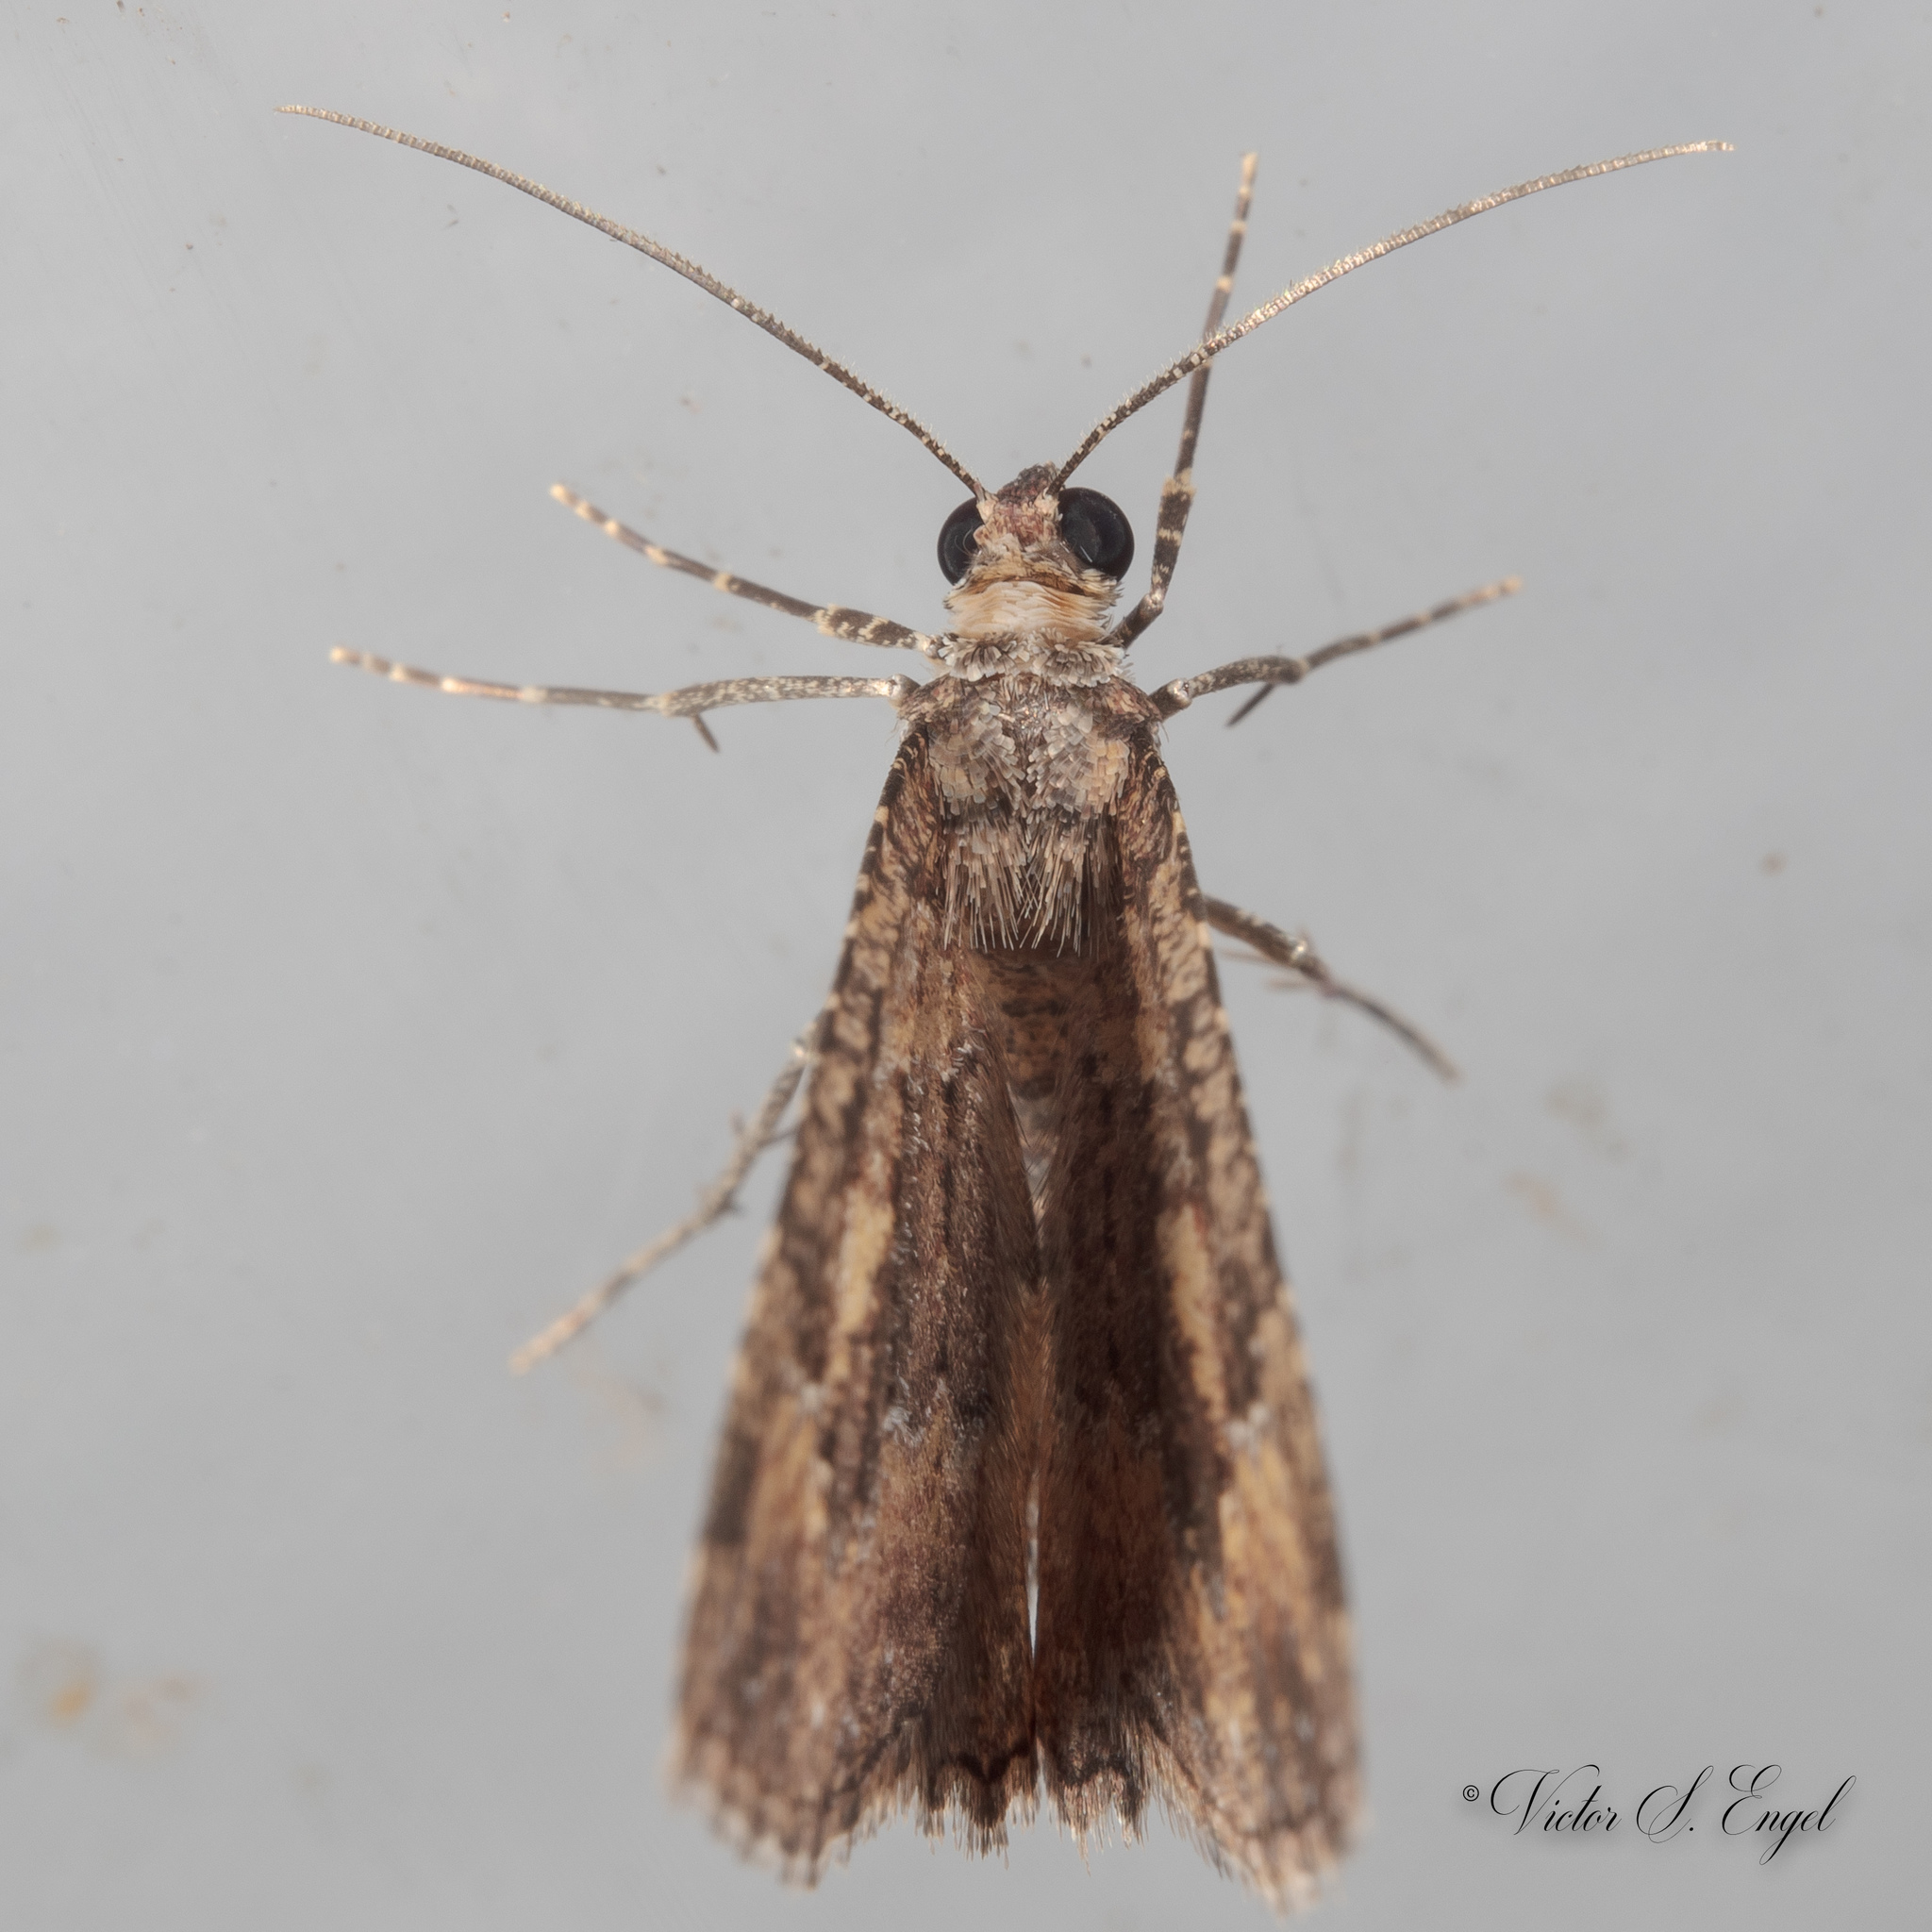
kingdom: Animalia
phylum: Arthropoda
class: Insecta
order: Lepidoptera
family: Geometridae
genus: Disclisioprocta
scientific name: Disclisioprocta stellata
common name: Somber carpet
